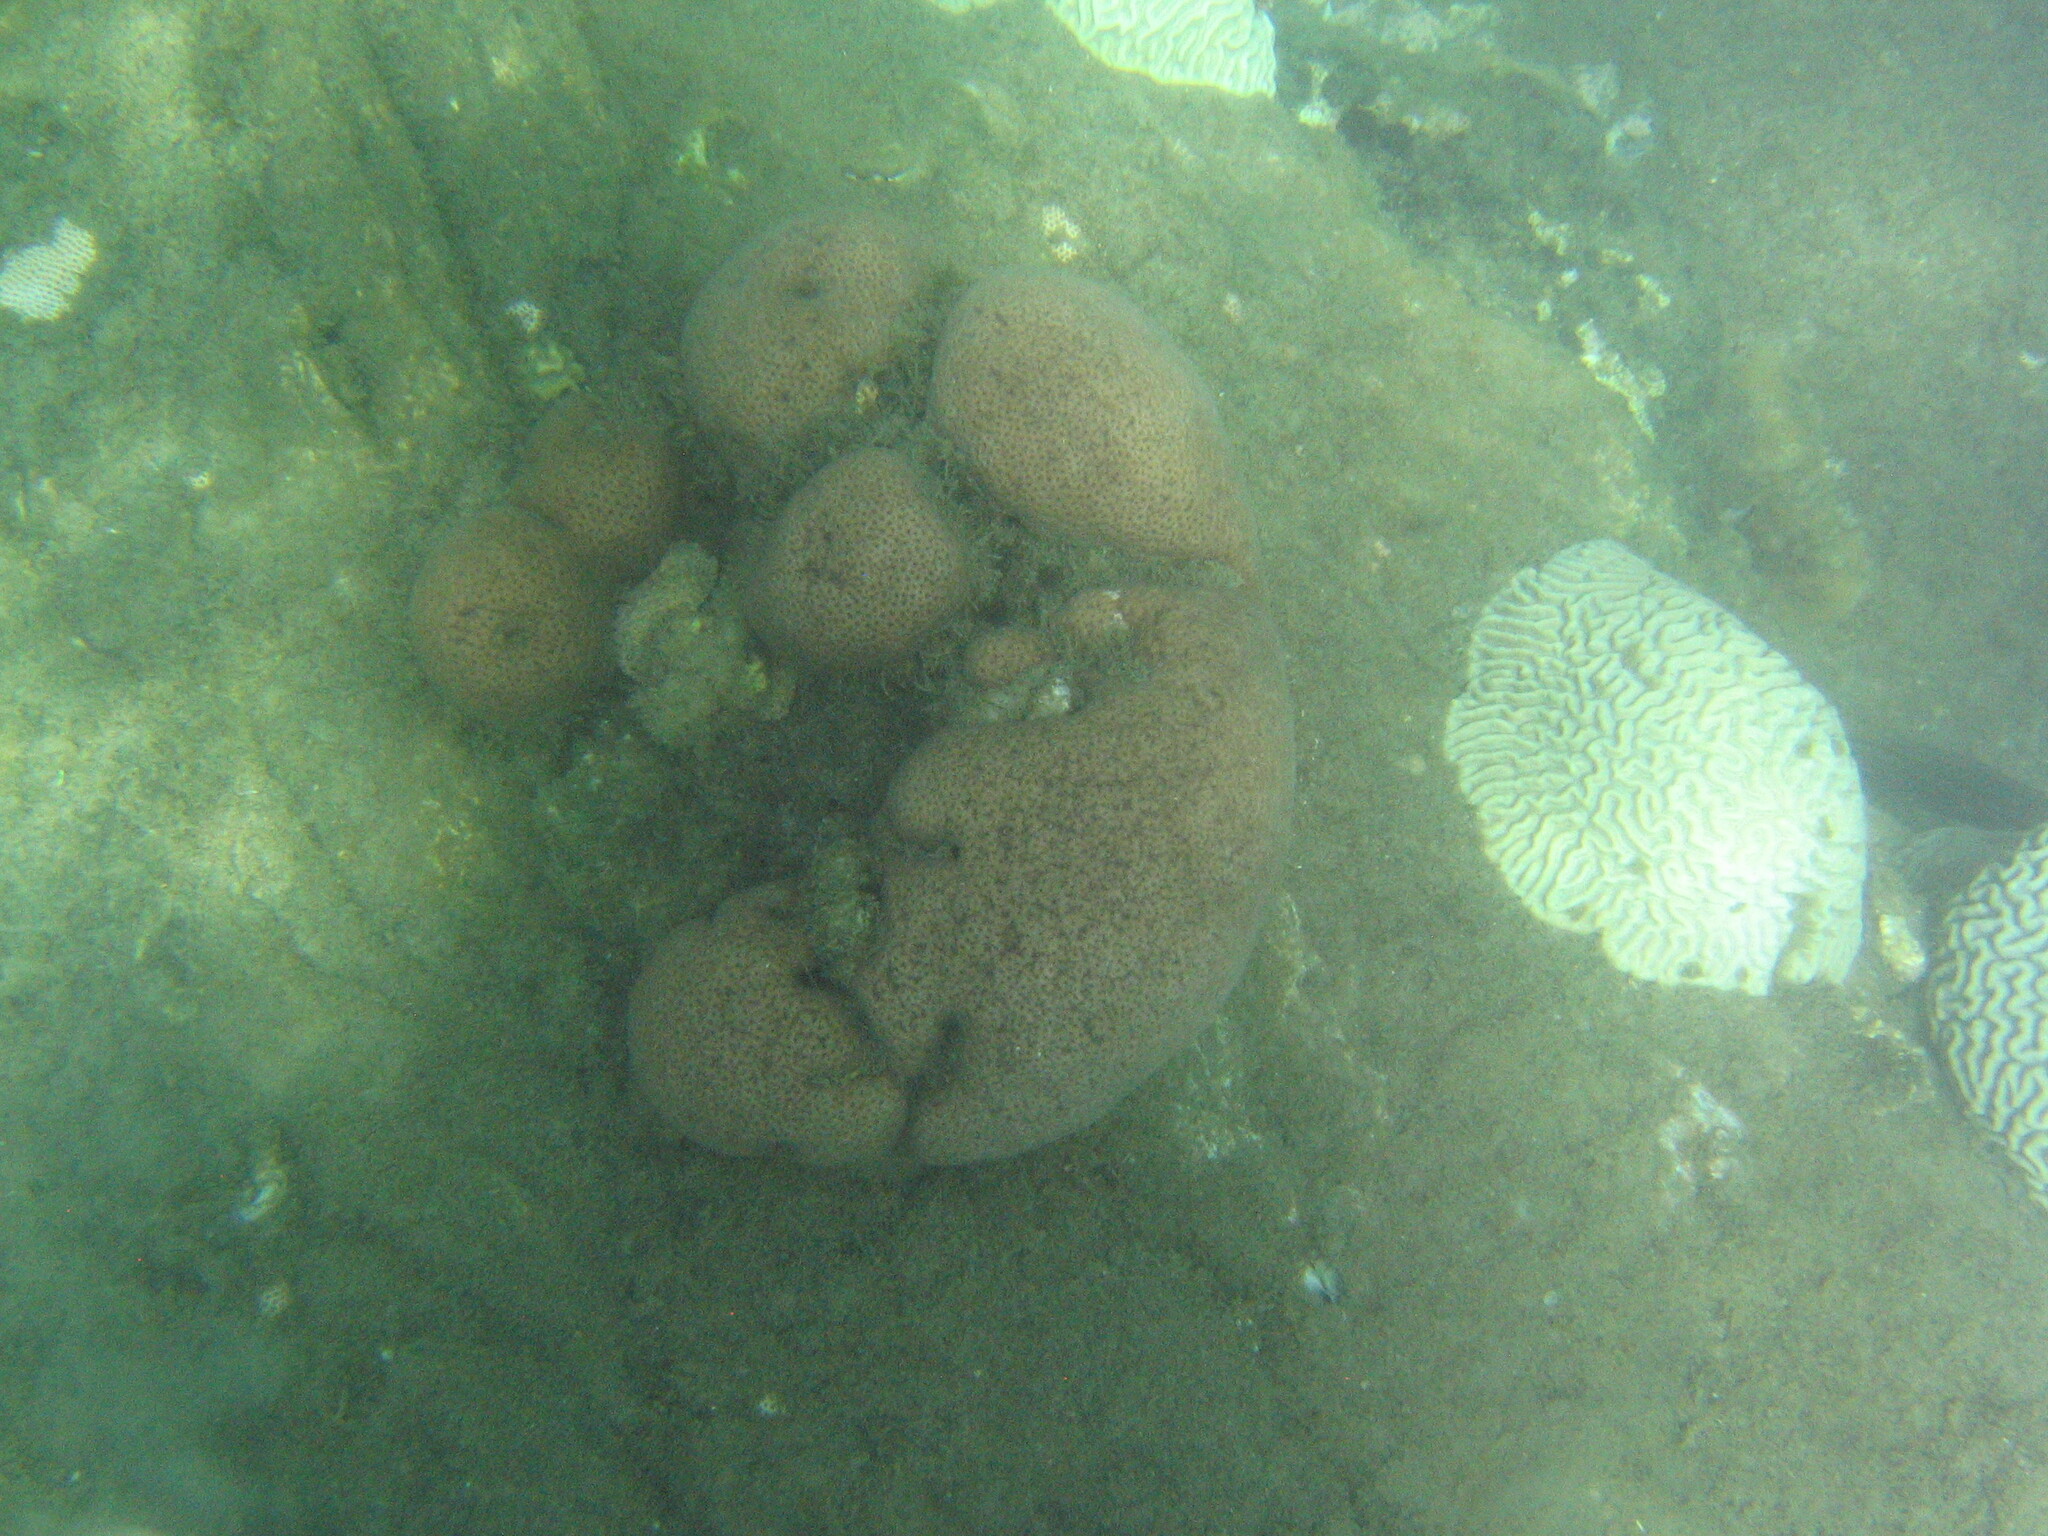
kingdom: Animalia
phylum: Cnidaria
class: Anthozoa
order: Scleractinia
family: Rhizangiidae
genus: Siderastrea
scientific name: Siderastrea siderea
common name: Massive starlet coral
